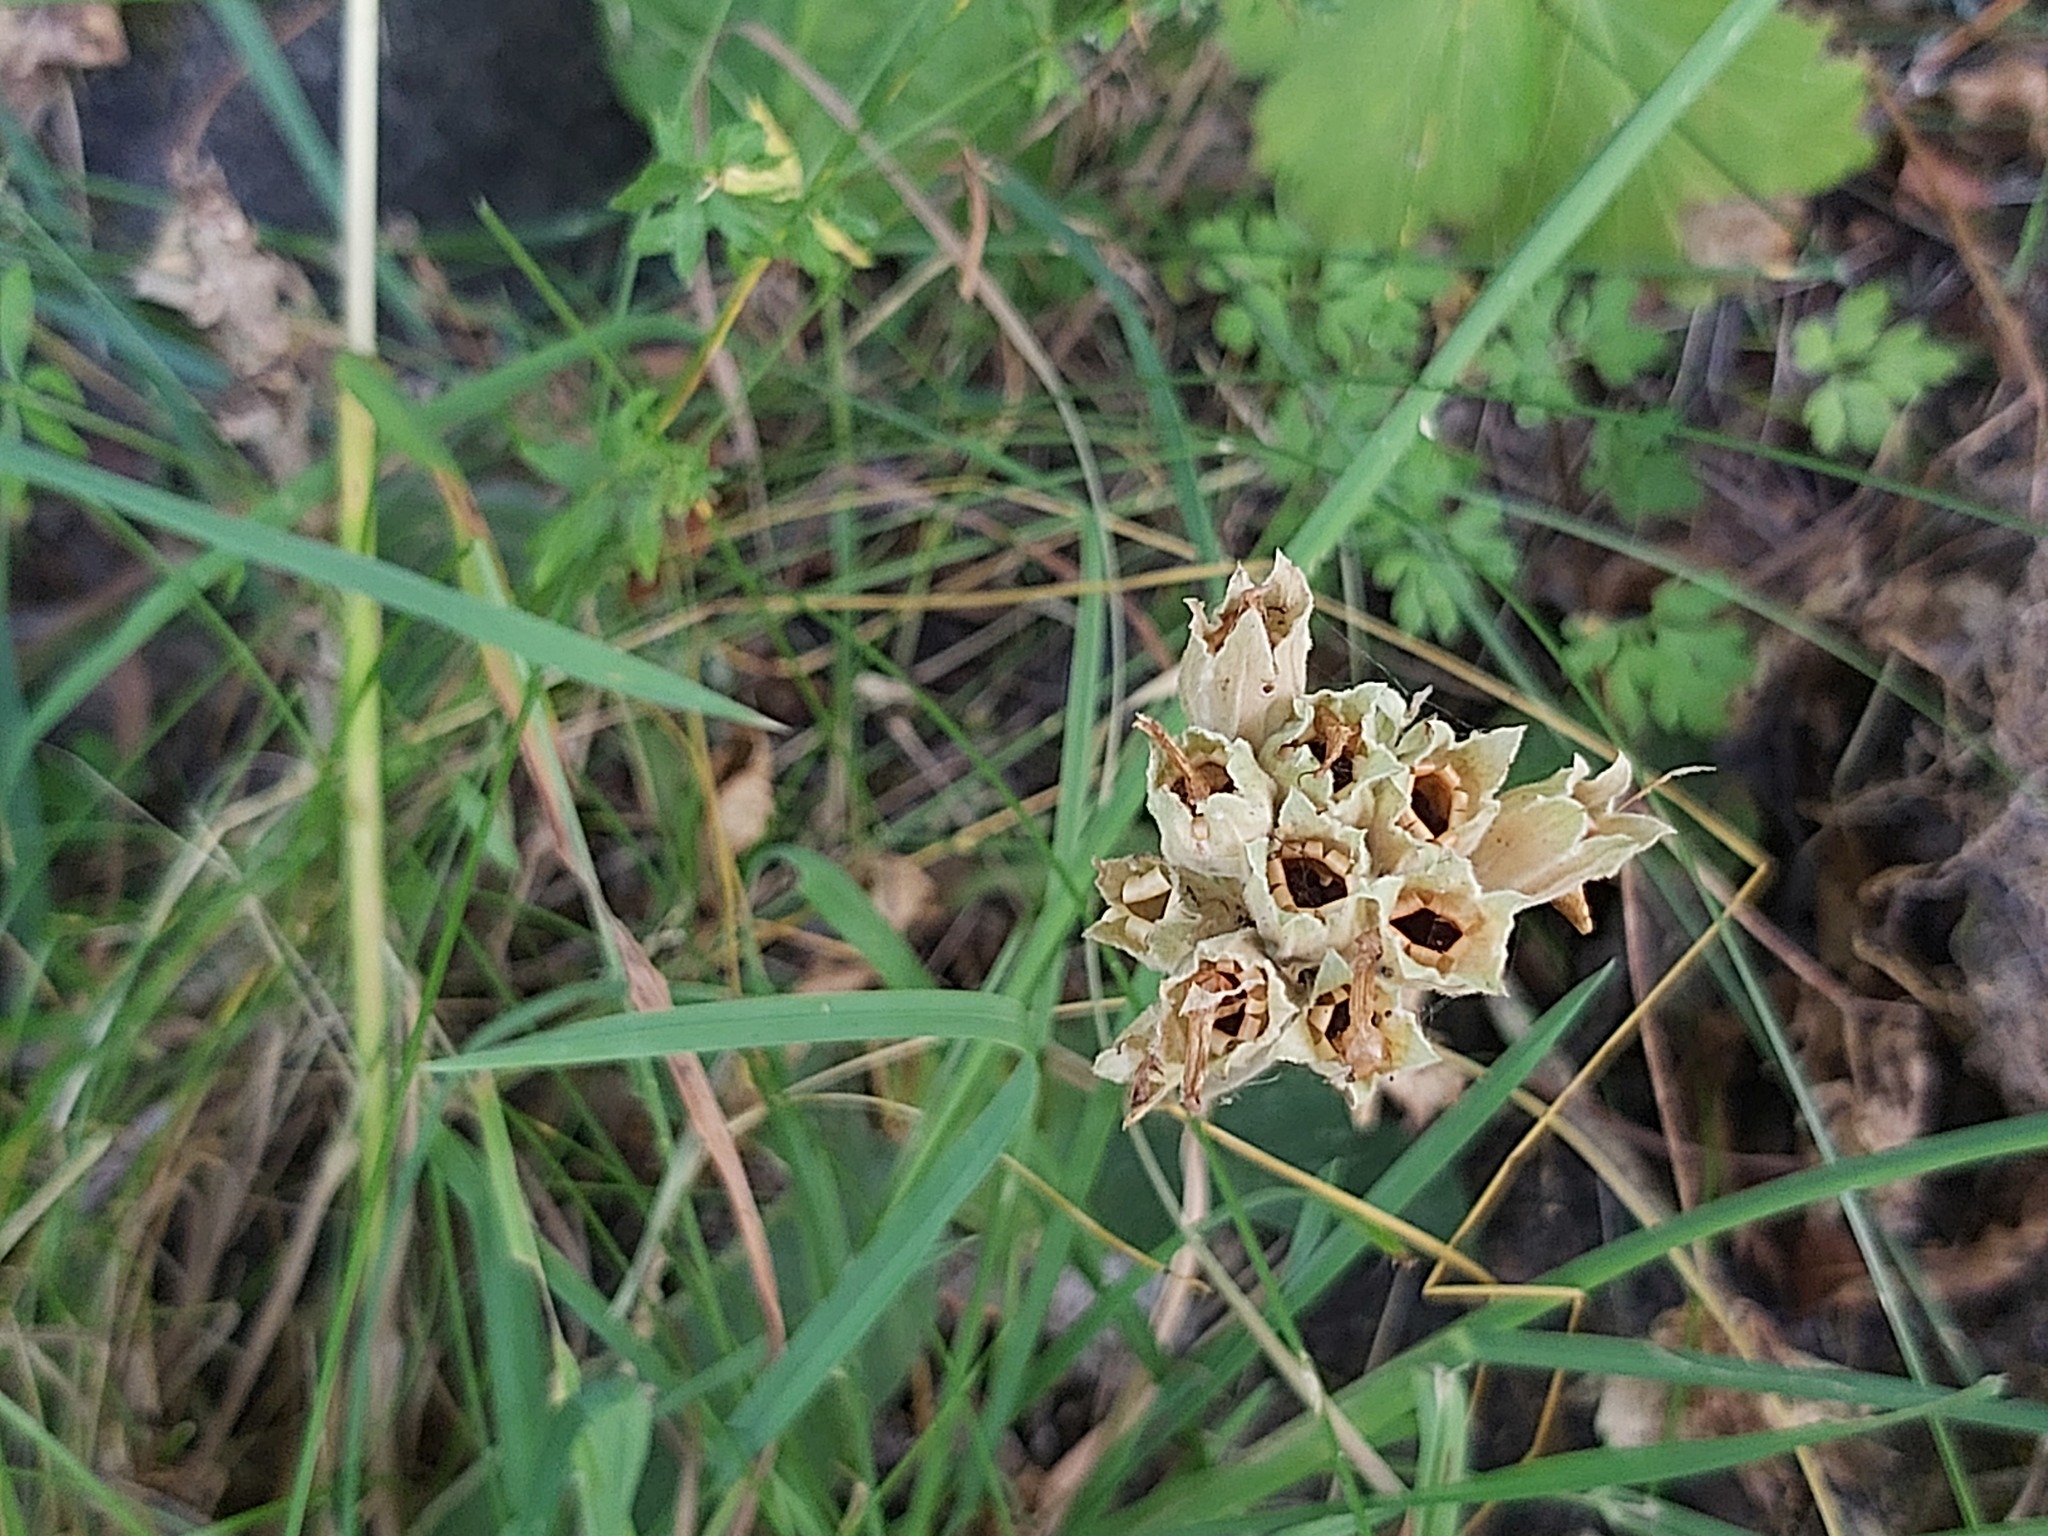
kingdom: Plantae
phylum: Tracheophyta
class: Magnoliopsida
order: Ericales
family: Primulaceae
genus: Primula
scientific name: Primula veris
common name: Cowslip
